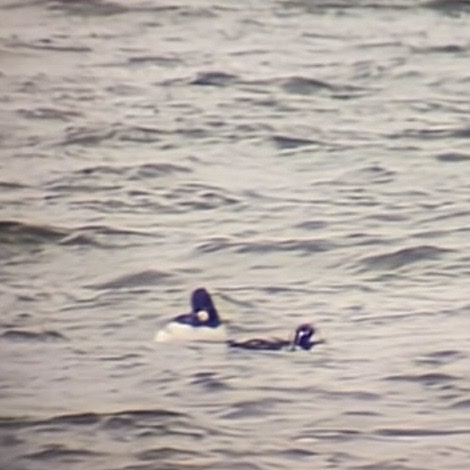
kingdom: Animalia
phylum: Chordata
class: Aves
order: Anseriformes
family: Anatidae
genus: Bucephala
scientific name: Bucephala clangula
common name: Common goldeneye
